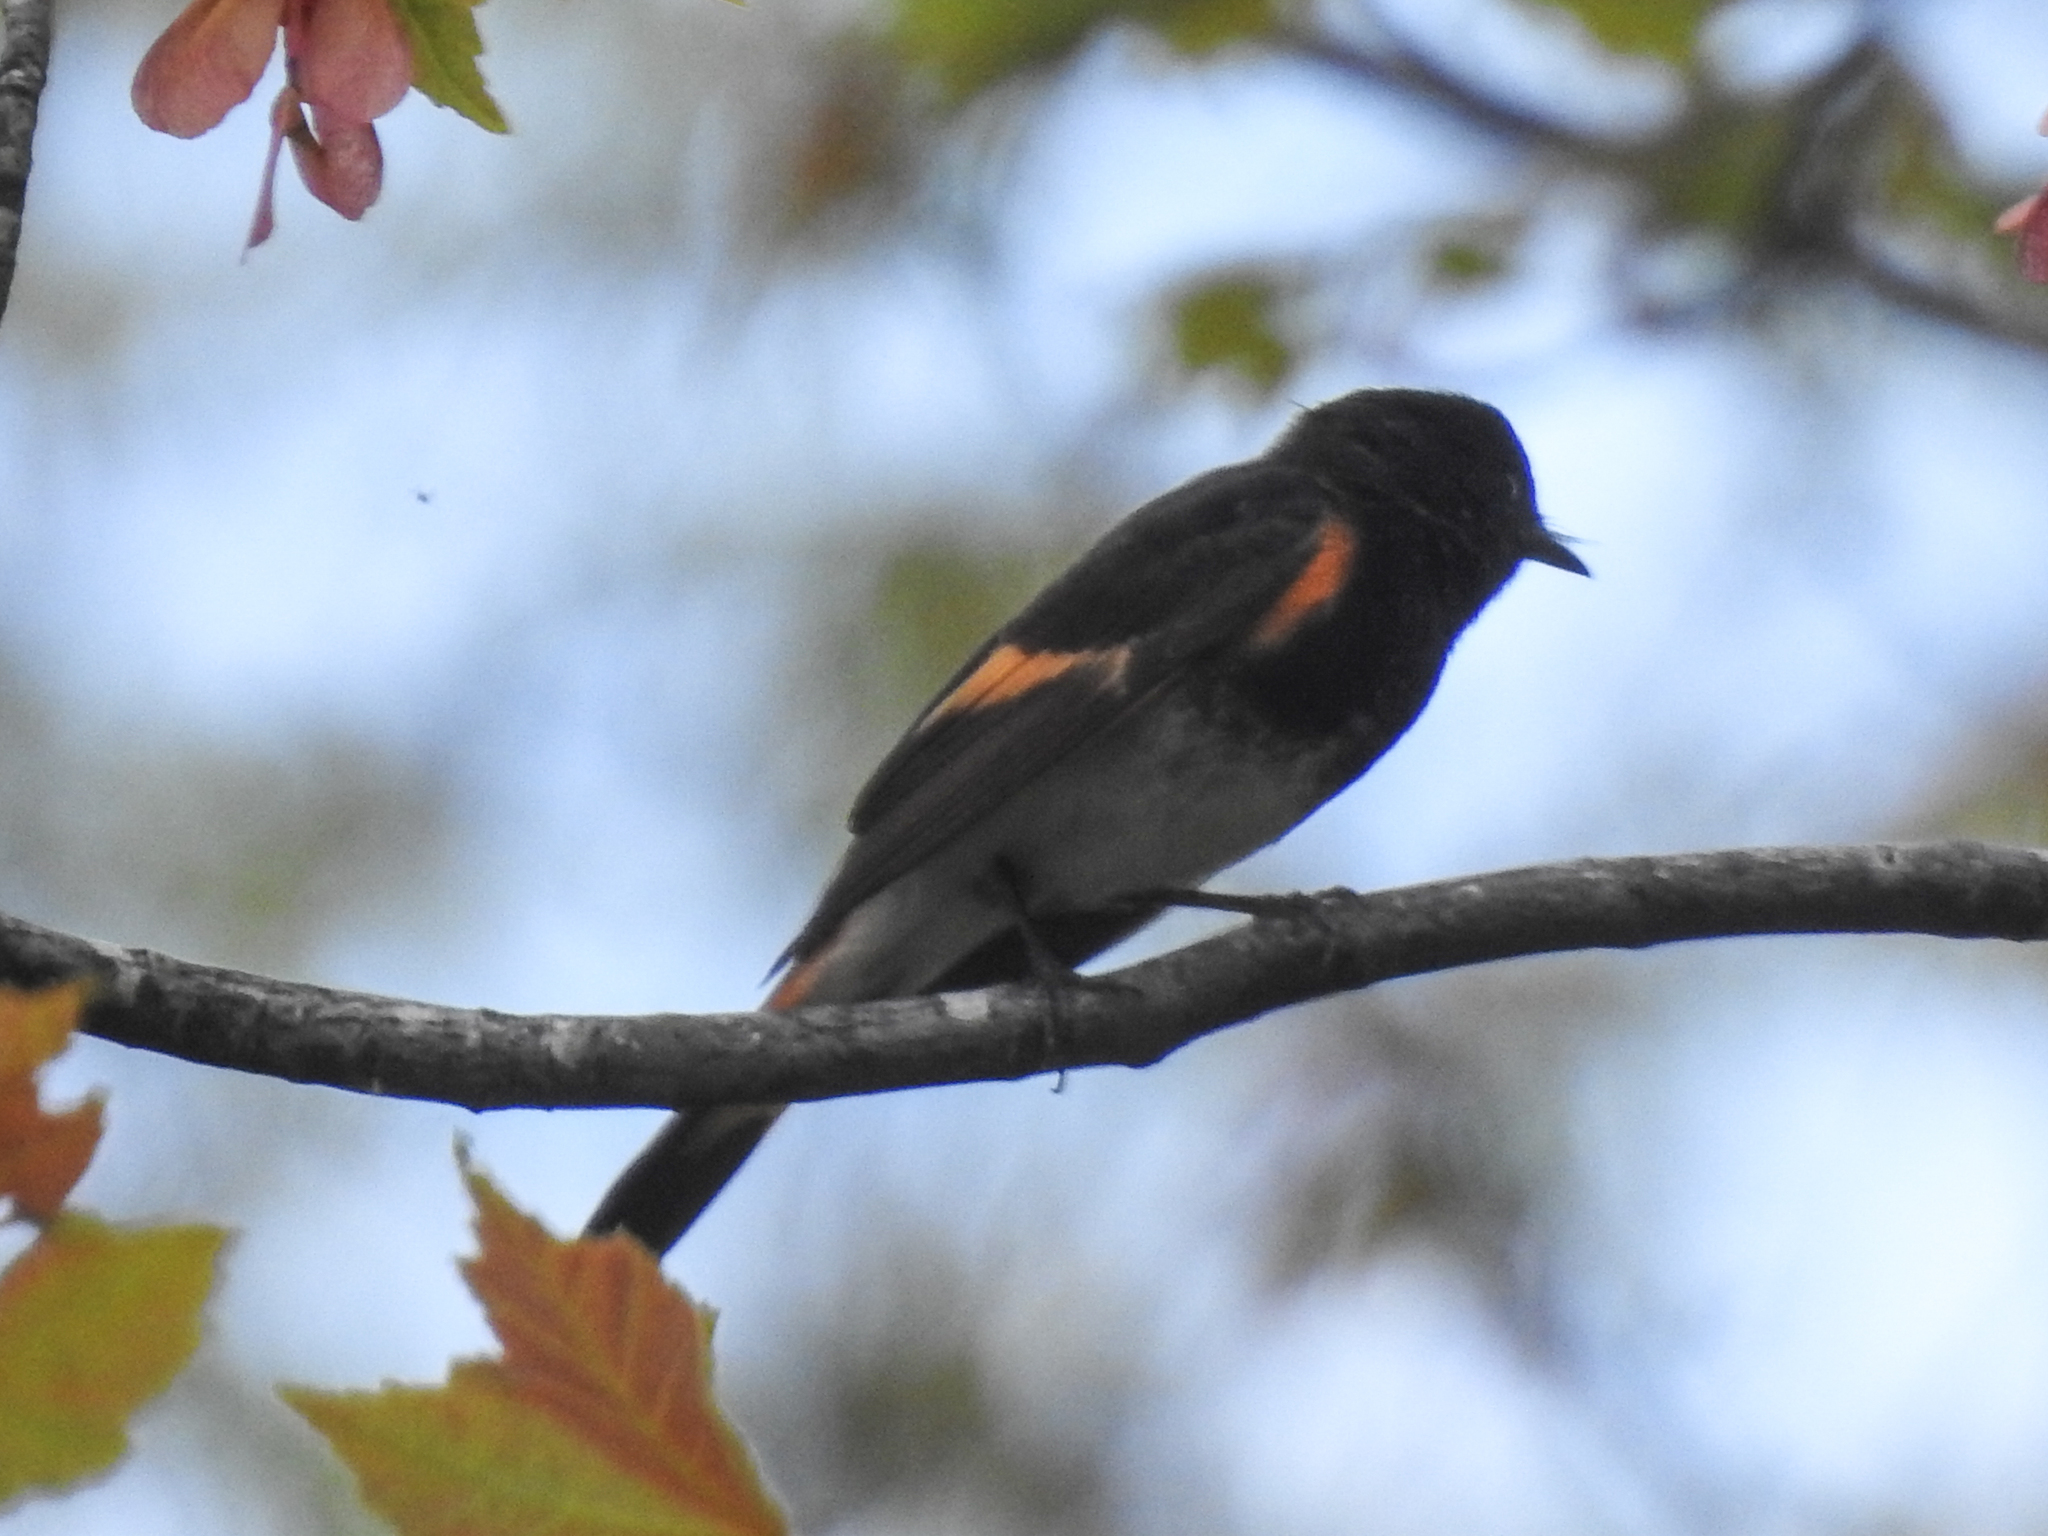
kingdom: Animalia
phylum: Chordata
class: Aves
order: Passeriformes
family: Parulidae
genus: Setophaga
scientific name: Setophaga ruticilla
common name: American redstart
